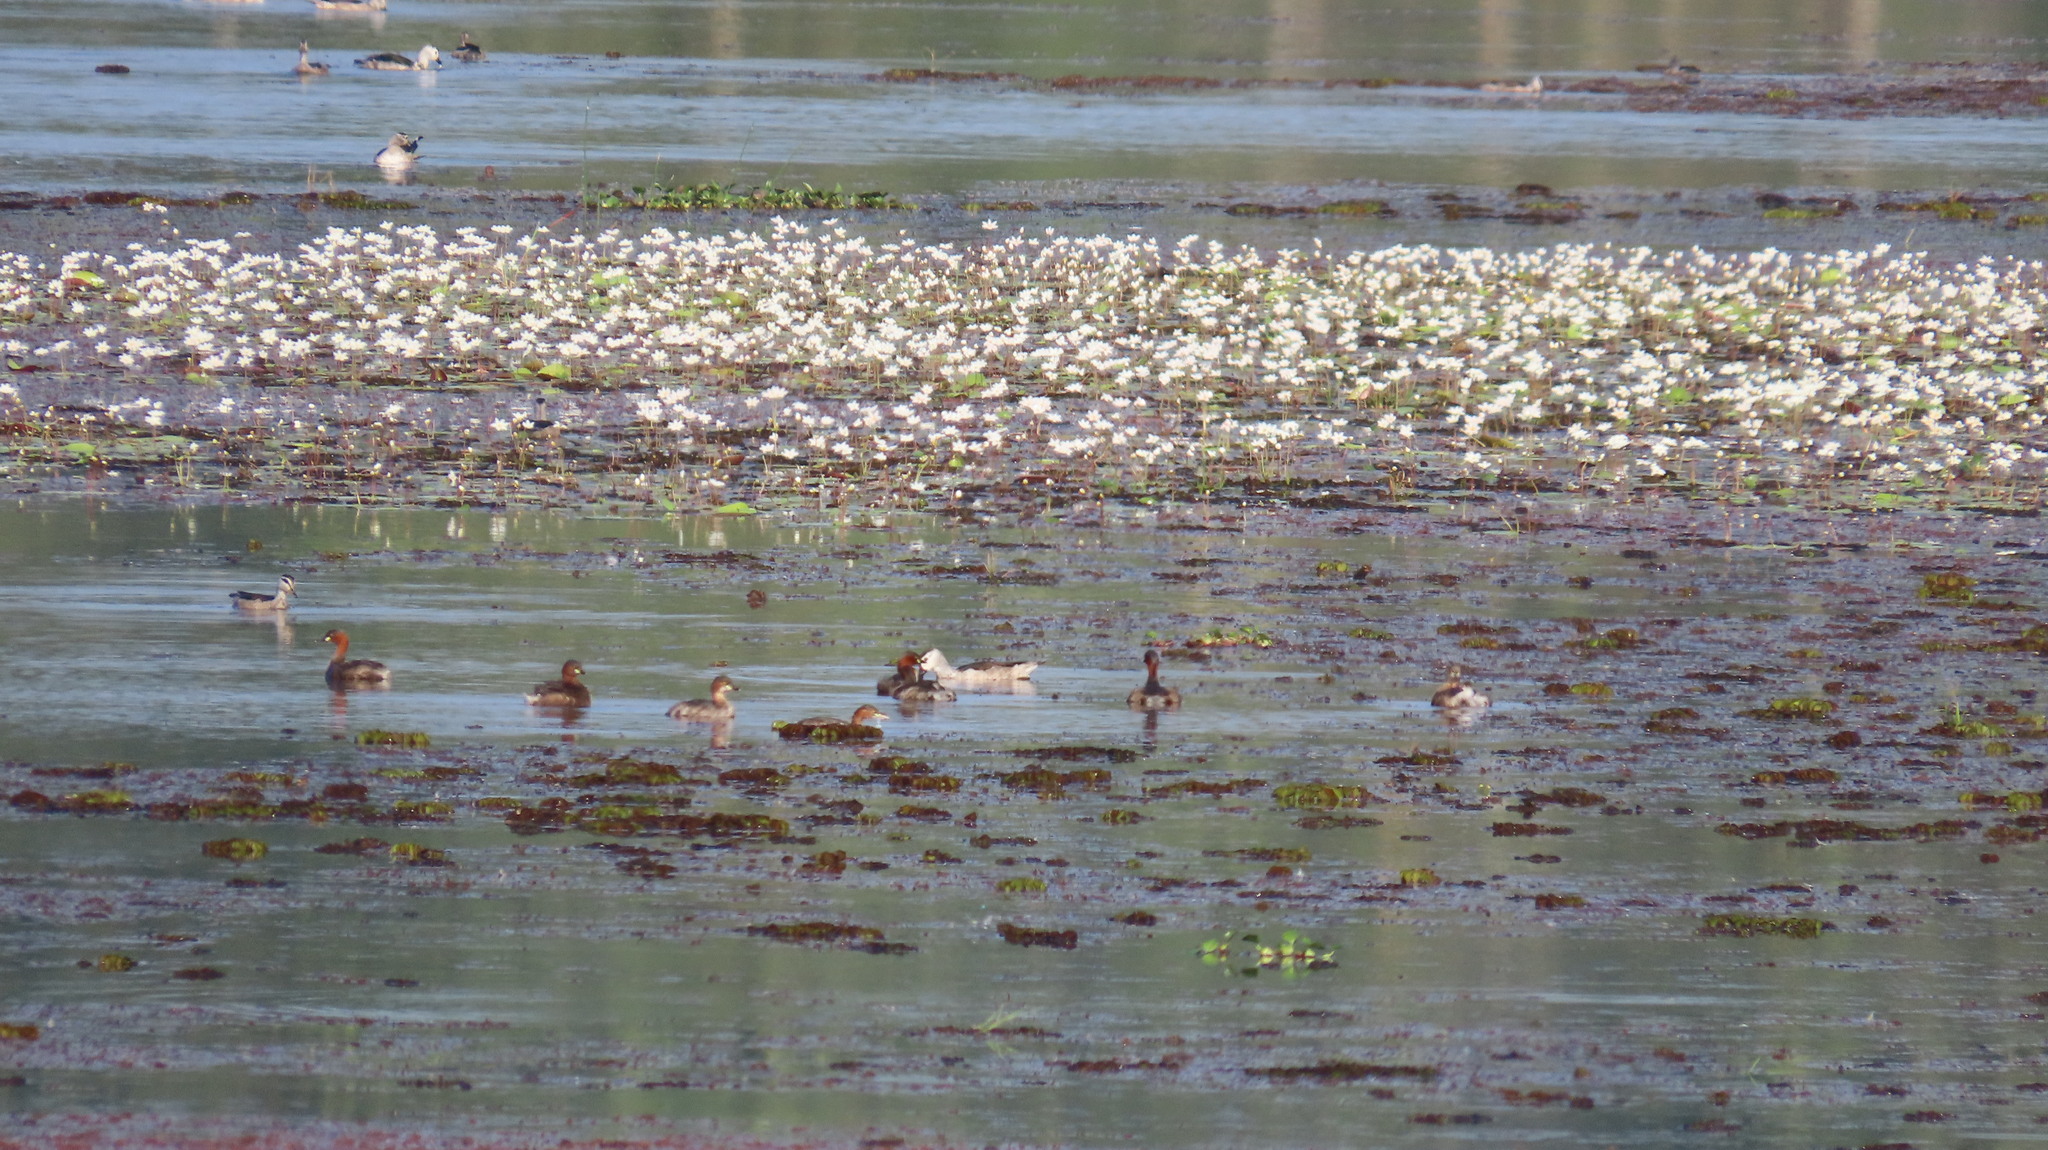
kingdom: Animalia
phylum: Chordata
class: Aves
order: Podicipediformes
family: Podicipedidae
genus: Tachybaptus
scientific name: Tachybaptus ruficollis
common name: Little grebe
